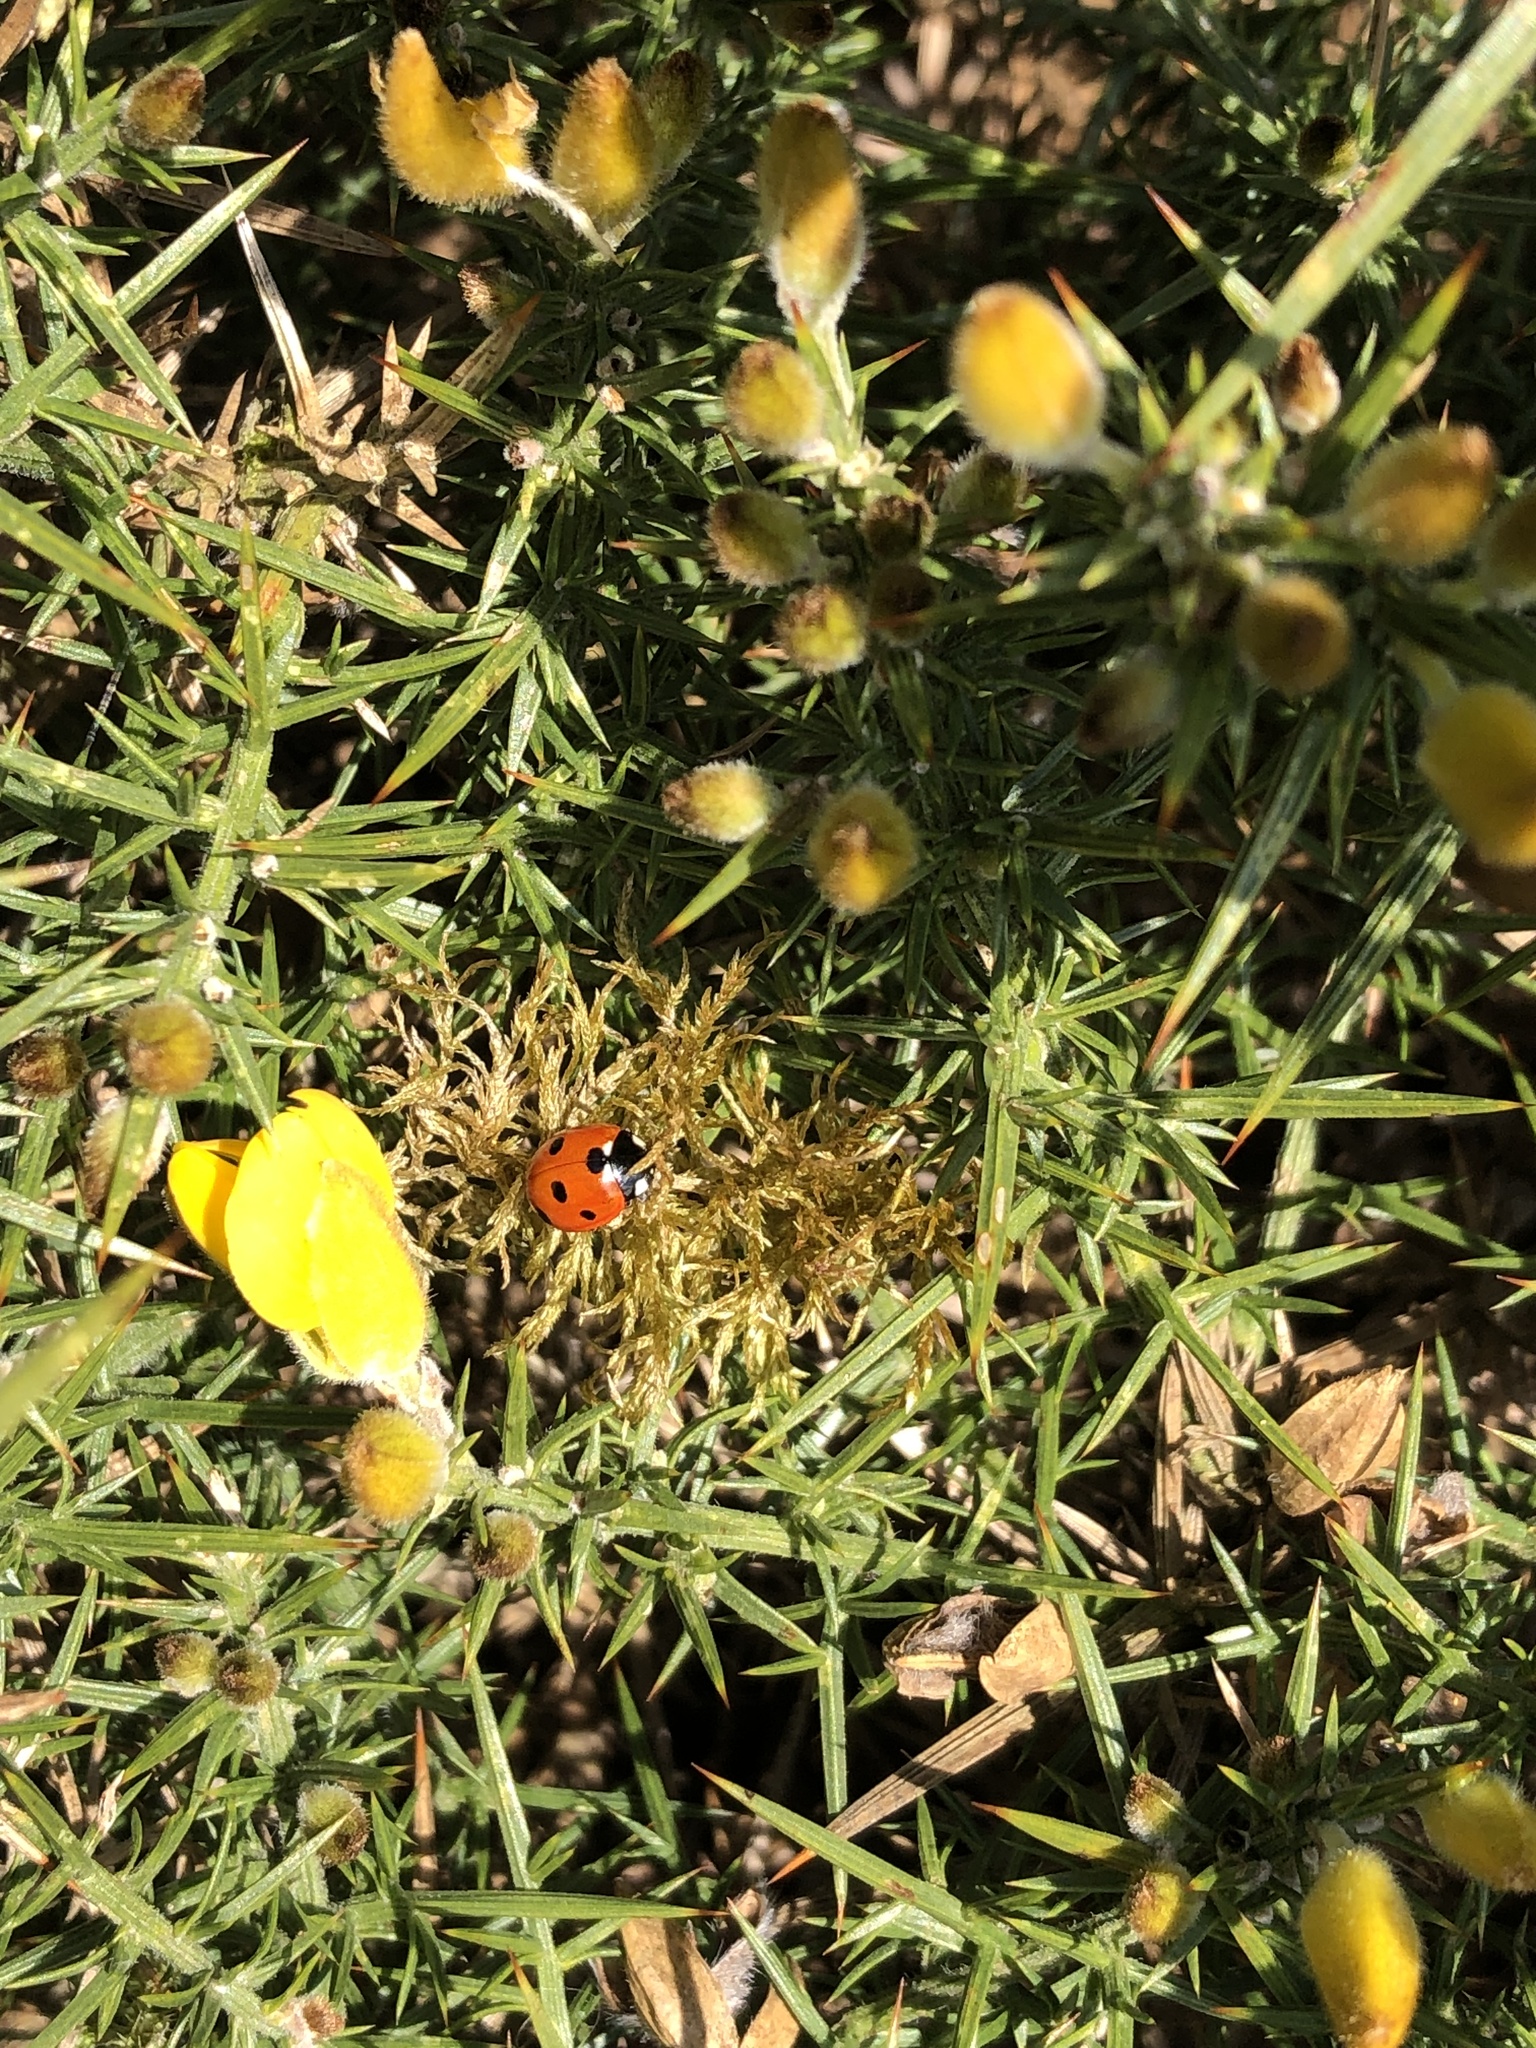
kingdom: Animalia
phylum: Arthropoda
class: Insecta
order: Coleoptera
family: Coccinellidae
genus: Coccinella
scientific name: Coccinella septempunctata
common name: Sevenspotted lady beetle
